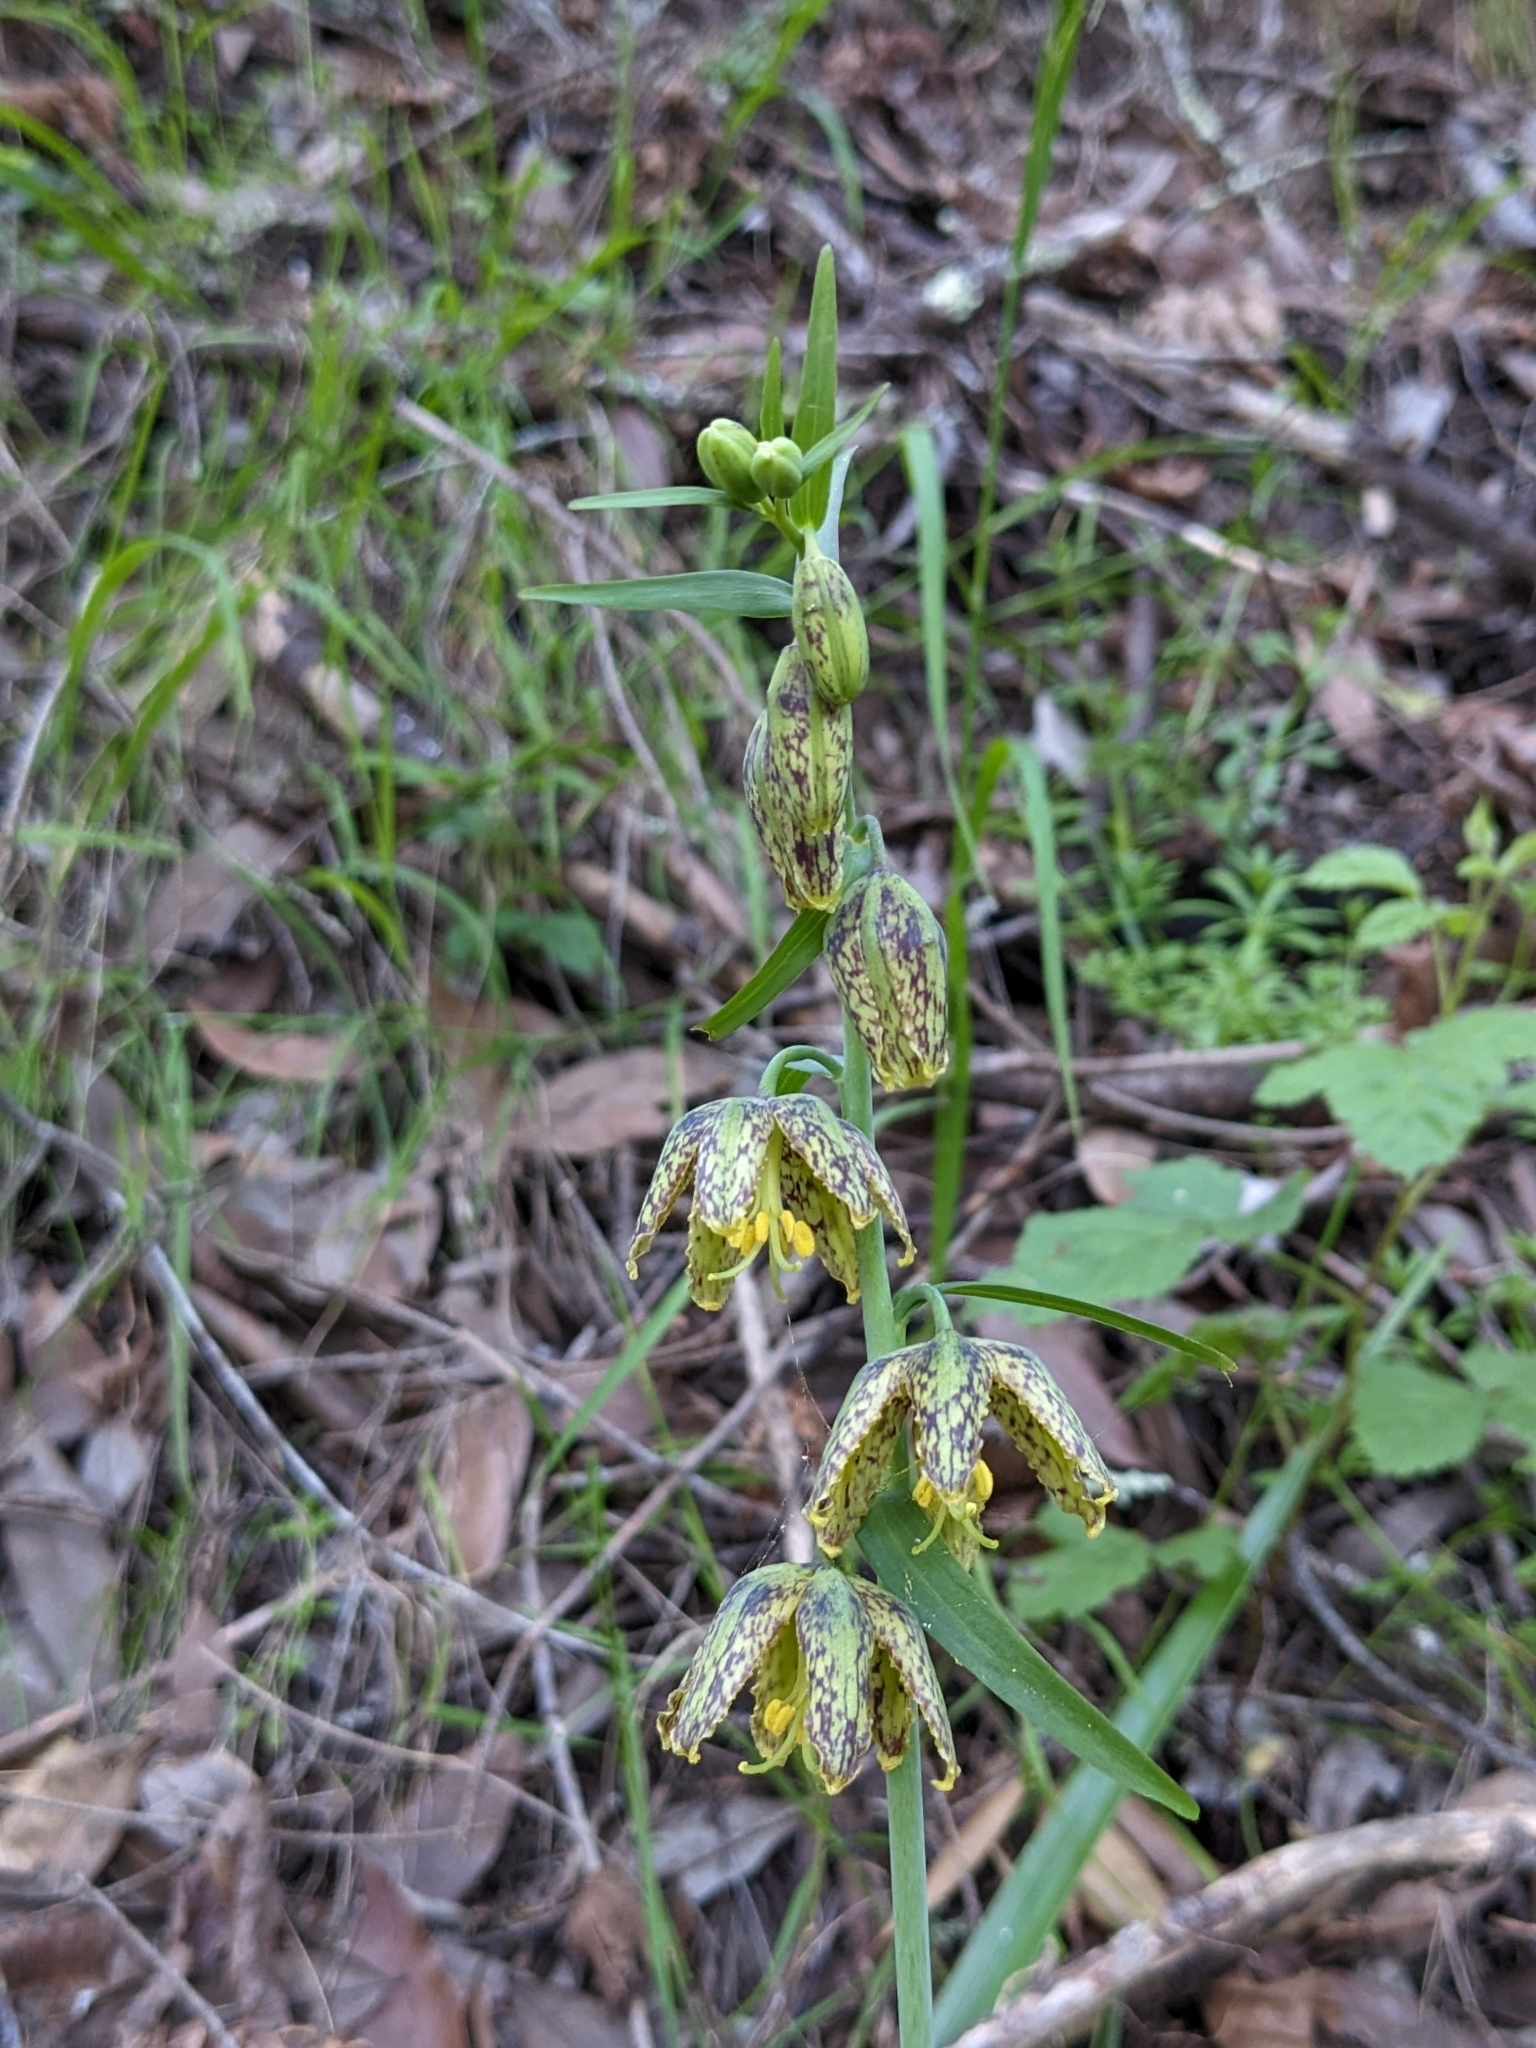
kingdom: Plantae
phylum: Tracheophyta
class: Liliopsida
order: Liliales
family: Liliaceae
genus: Fritillaria
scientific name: Fritillaria affinis
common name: Ojai fritillary
